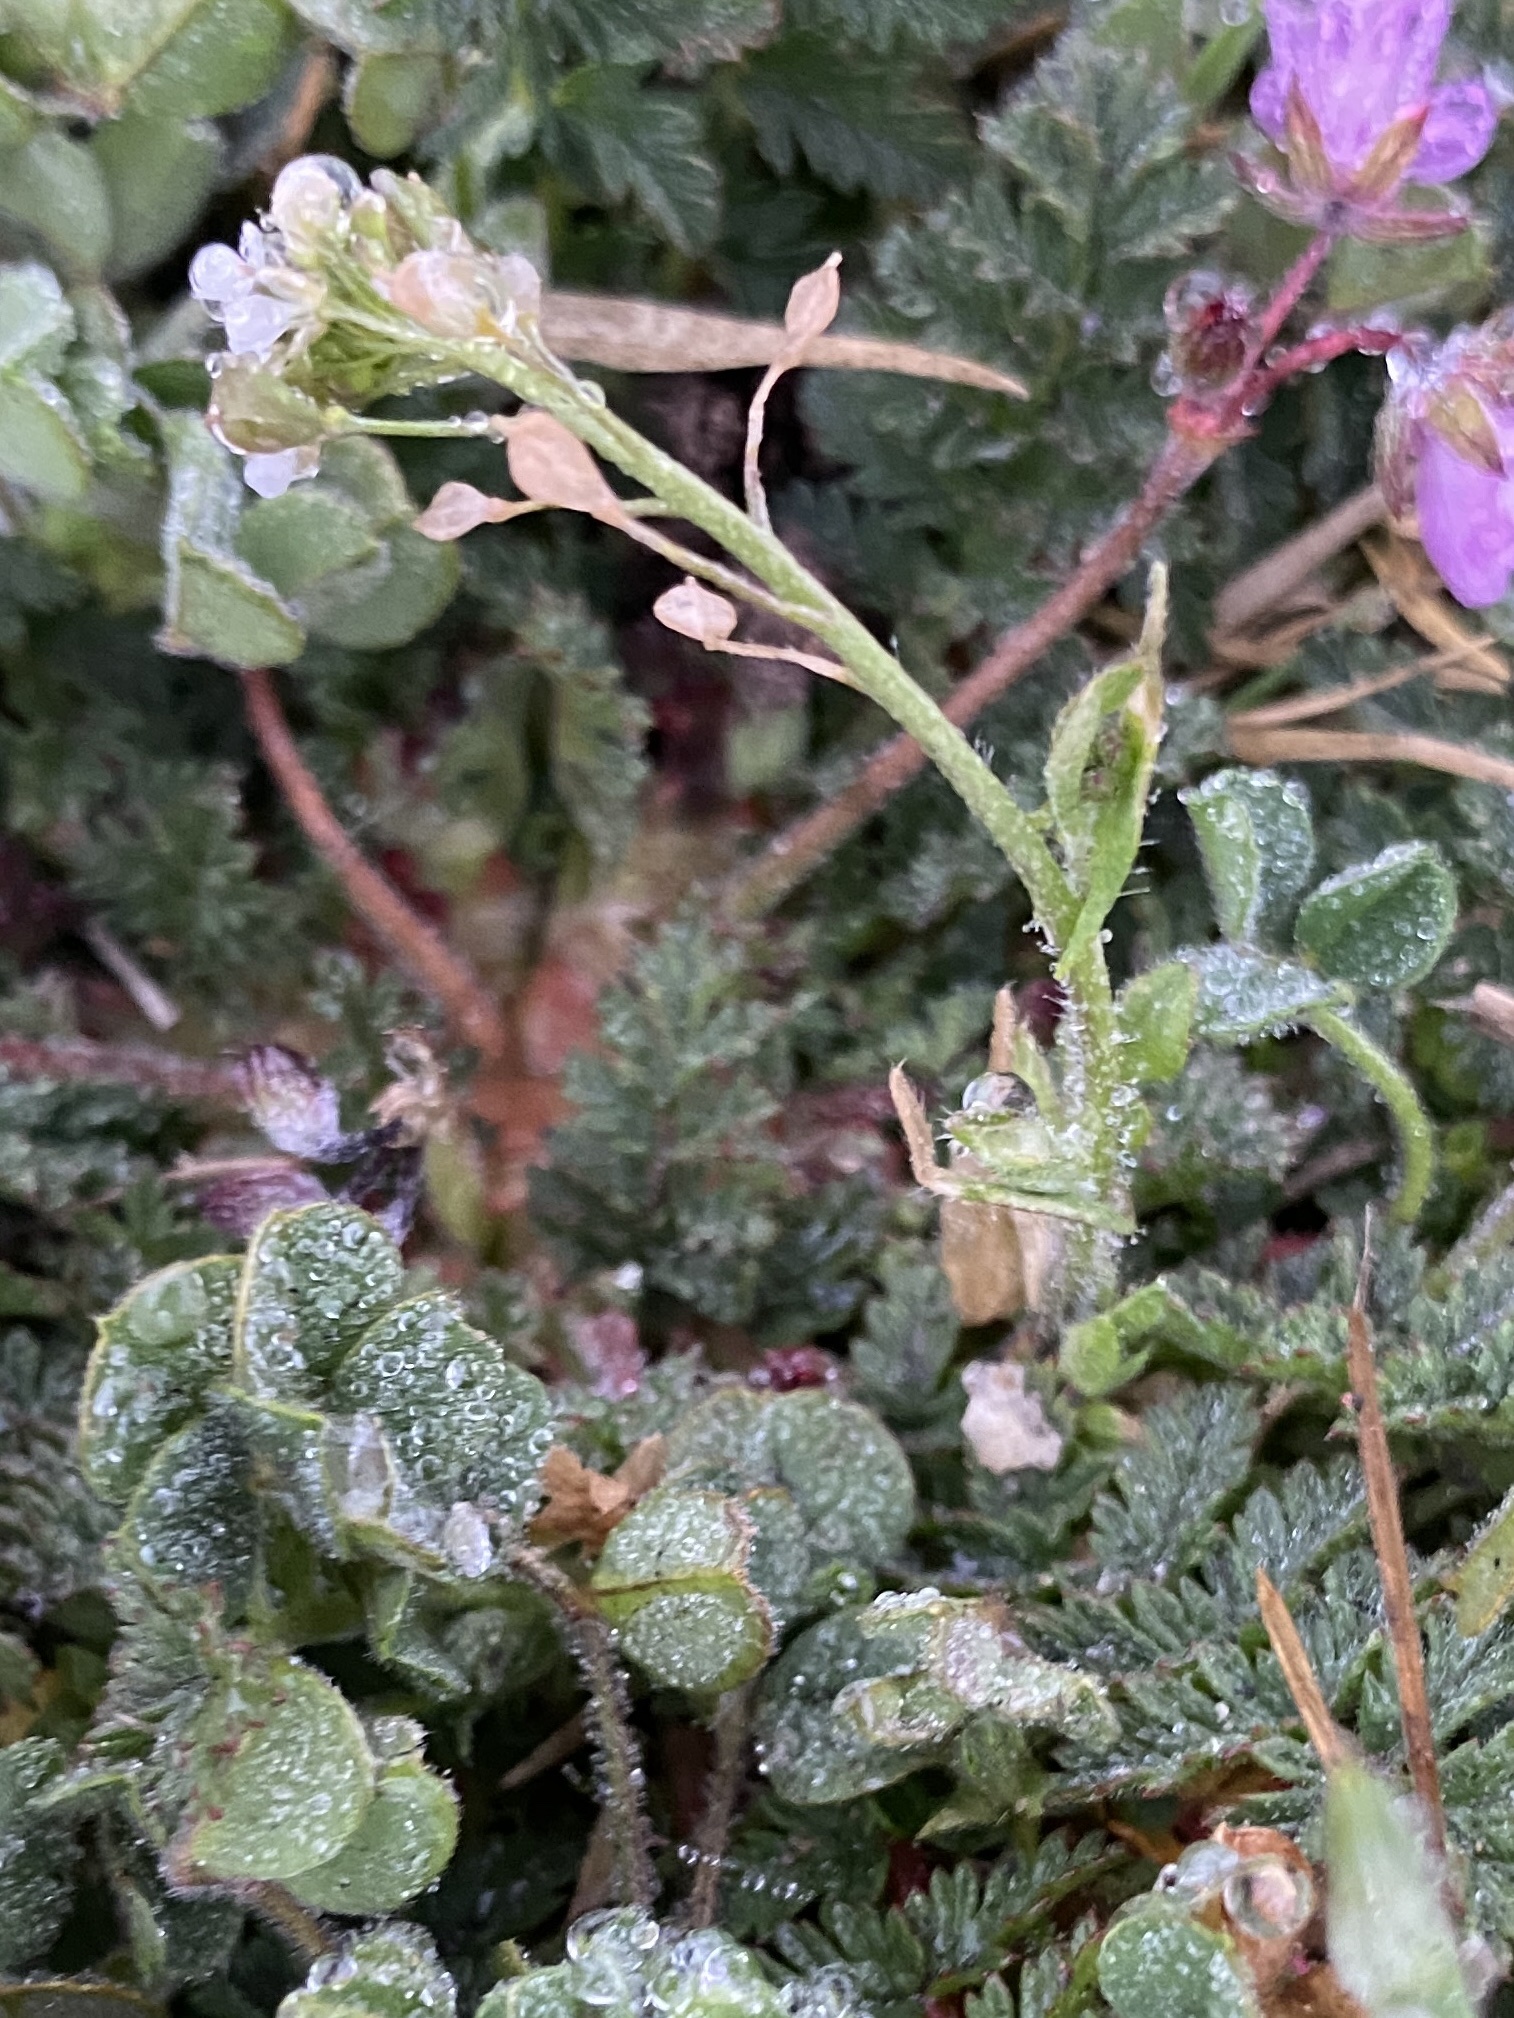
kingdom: Plantae
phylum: Tracheophyta
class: Magnoliopsida
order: Brassicales
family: Brassicaceae
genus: Capsella
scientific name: Capsella bursa-pastoris
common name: Shepherd's purse
